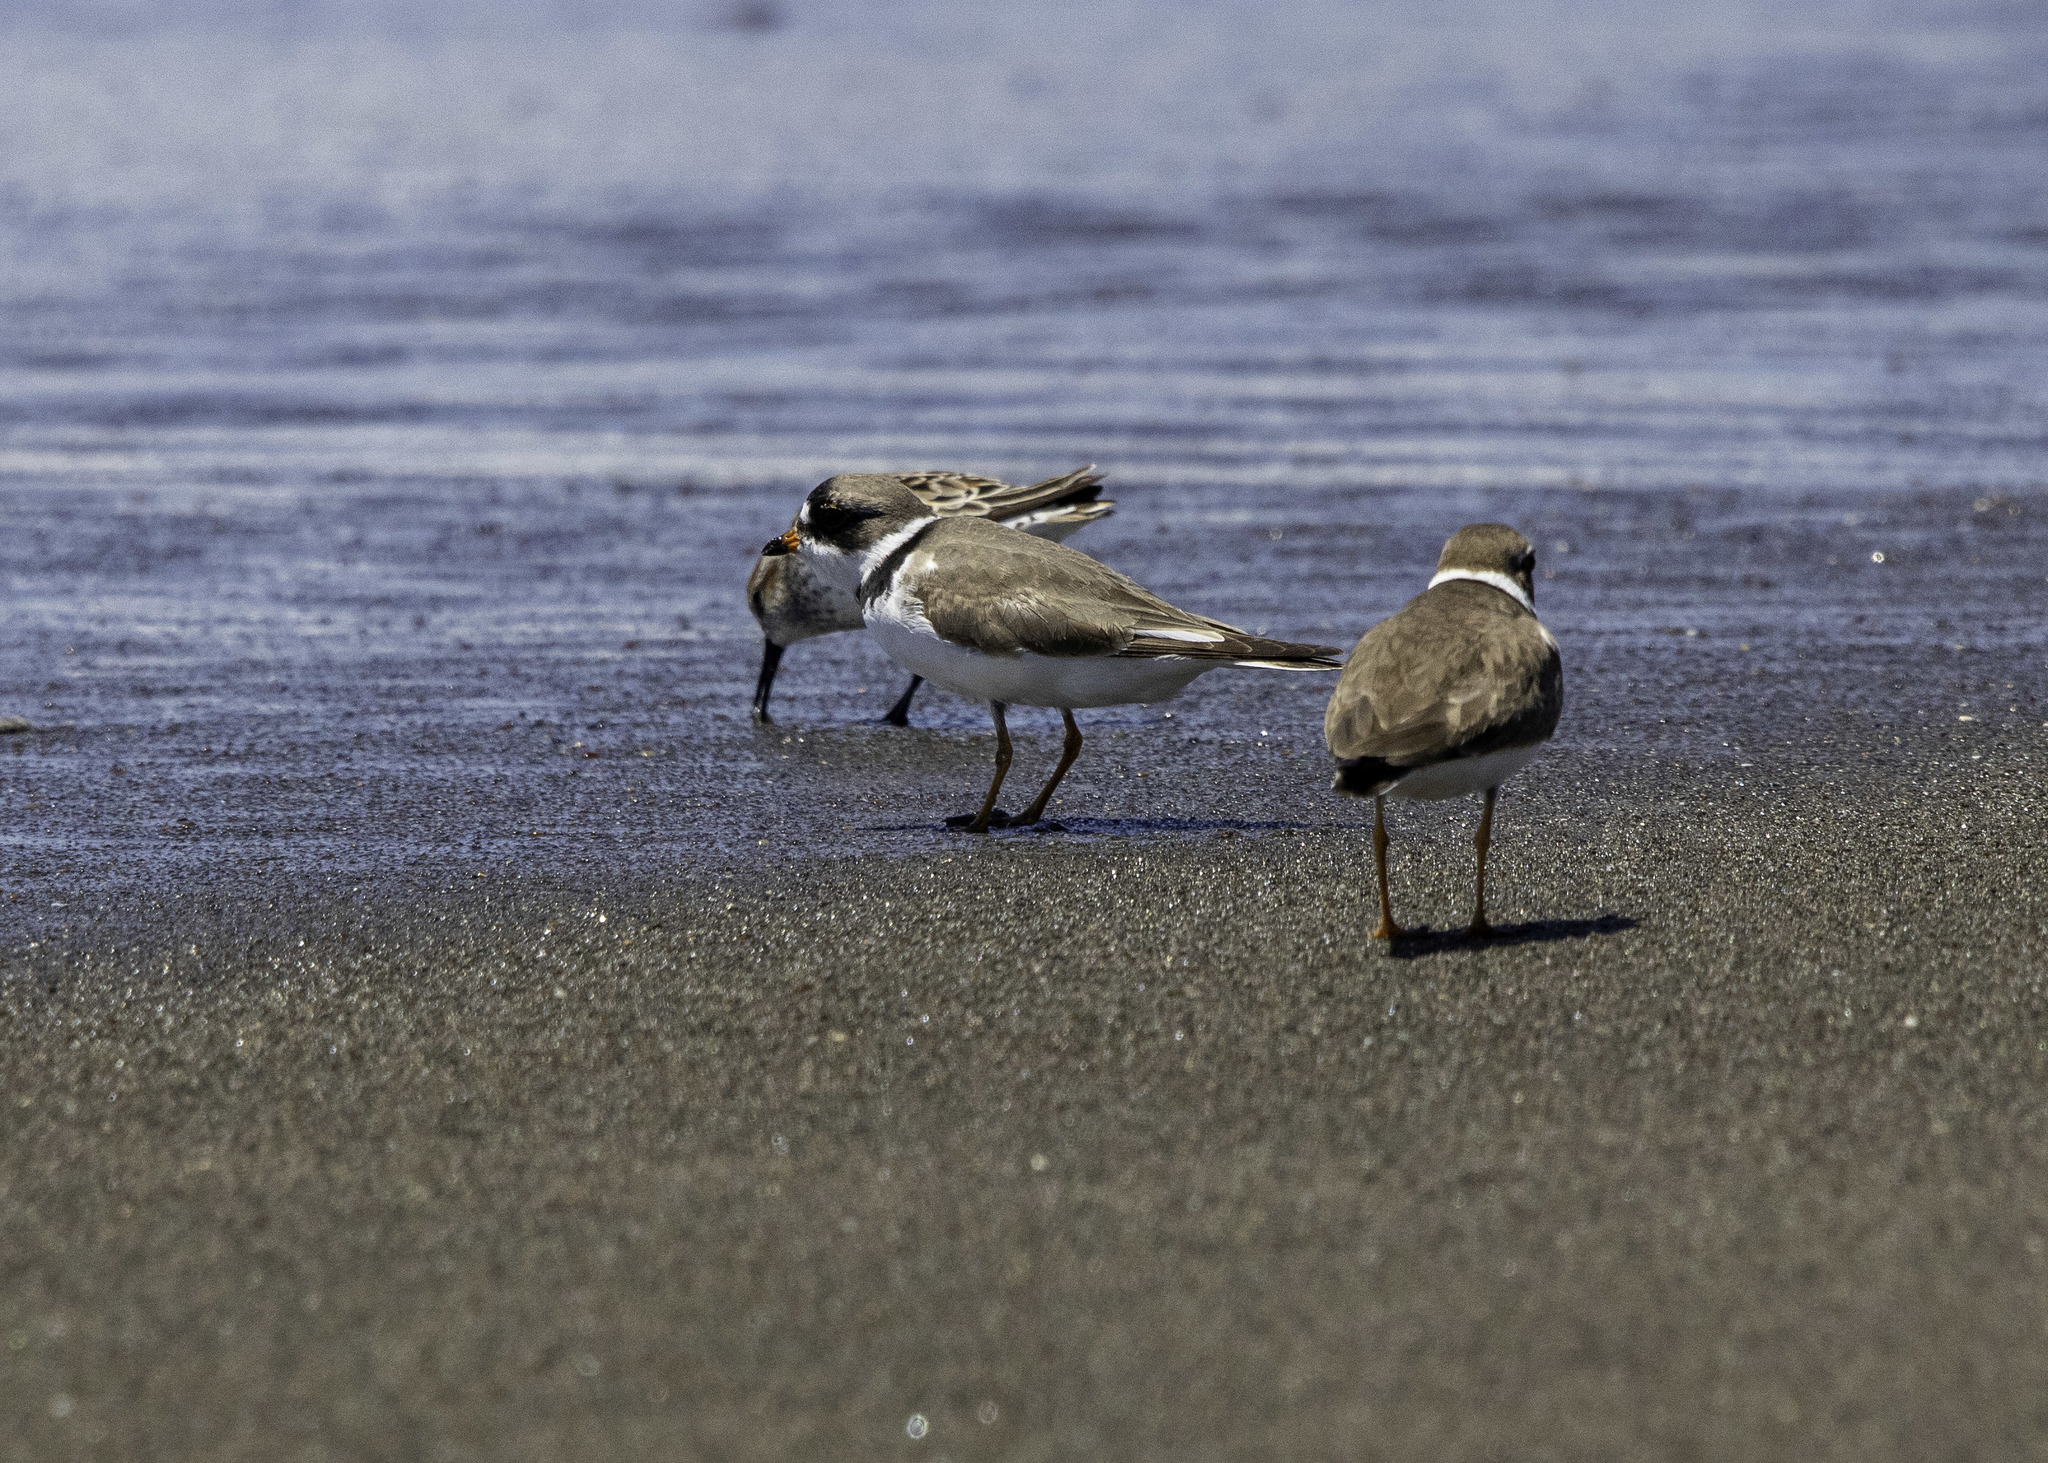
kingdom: Animalia
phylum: Chordata
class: Aves
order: Charadriiformes
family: Charadriidae
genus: Charadrius
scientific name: Charadrius semipalmatus
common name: Semipalmated plover
